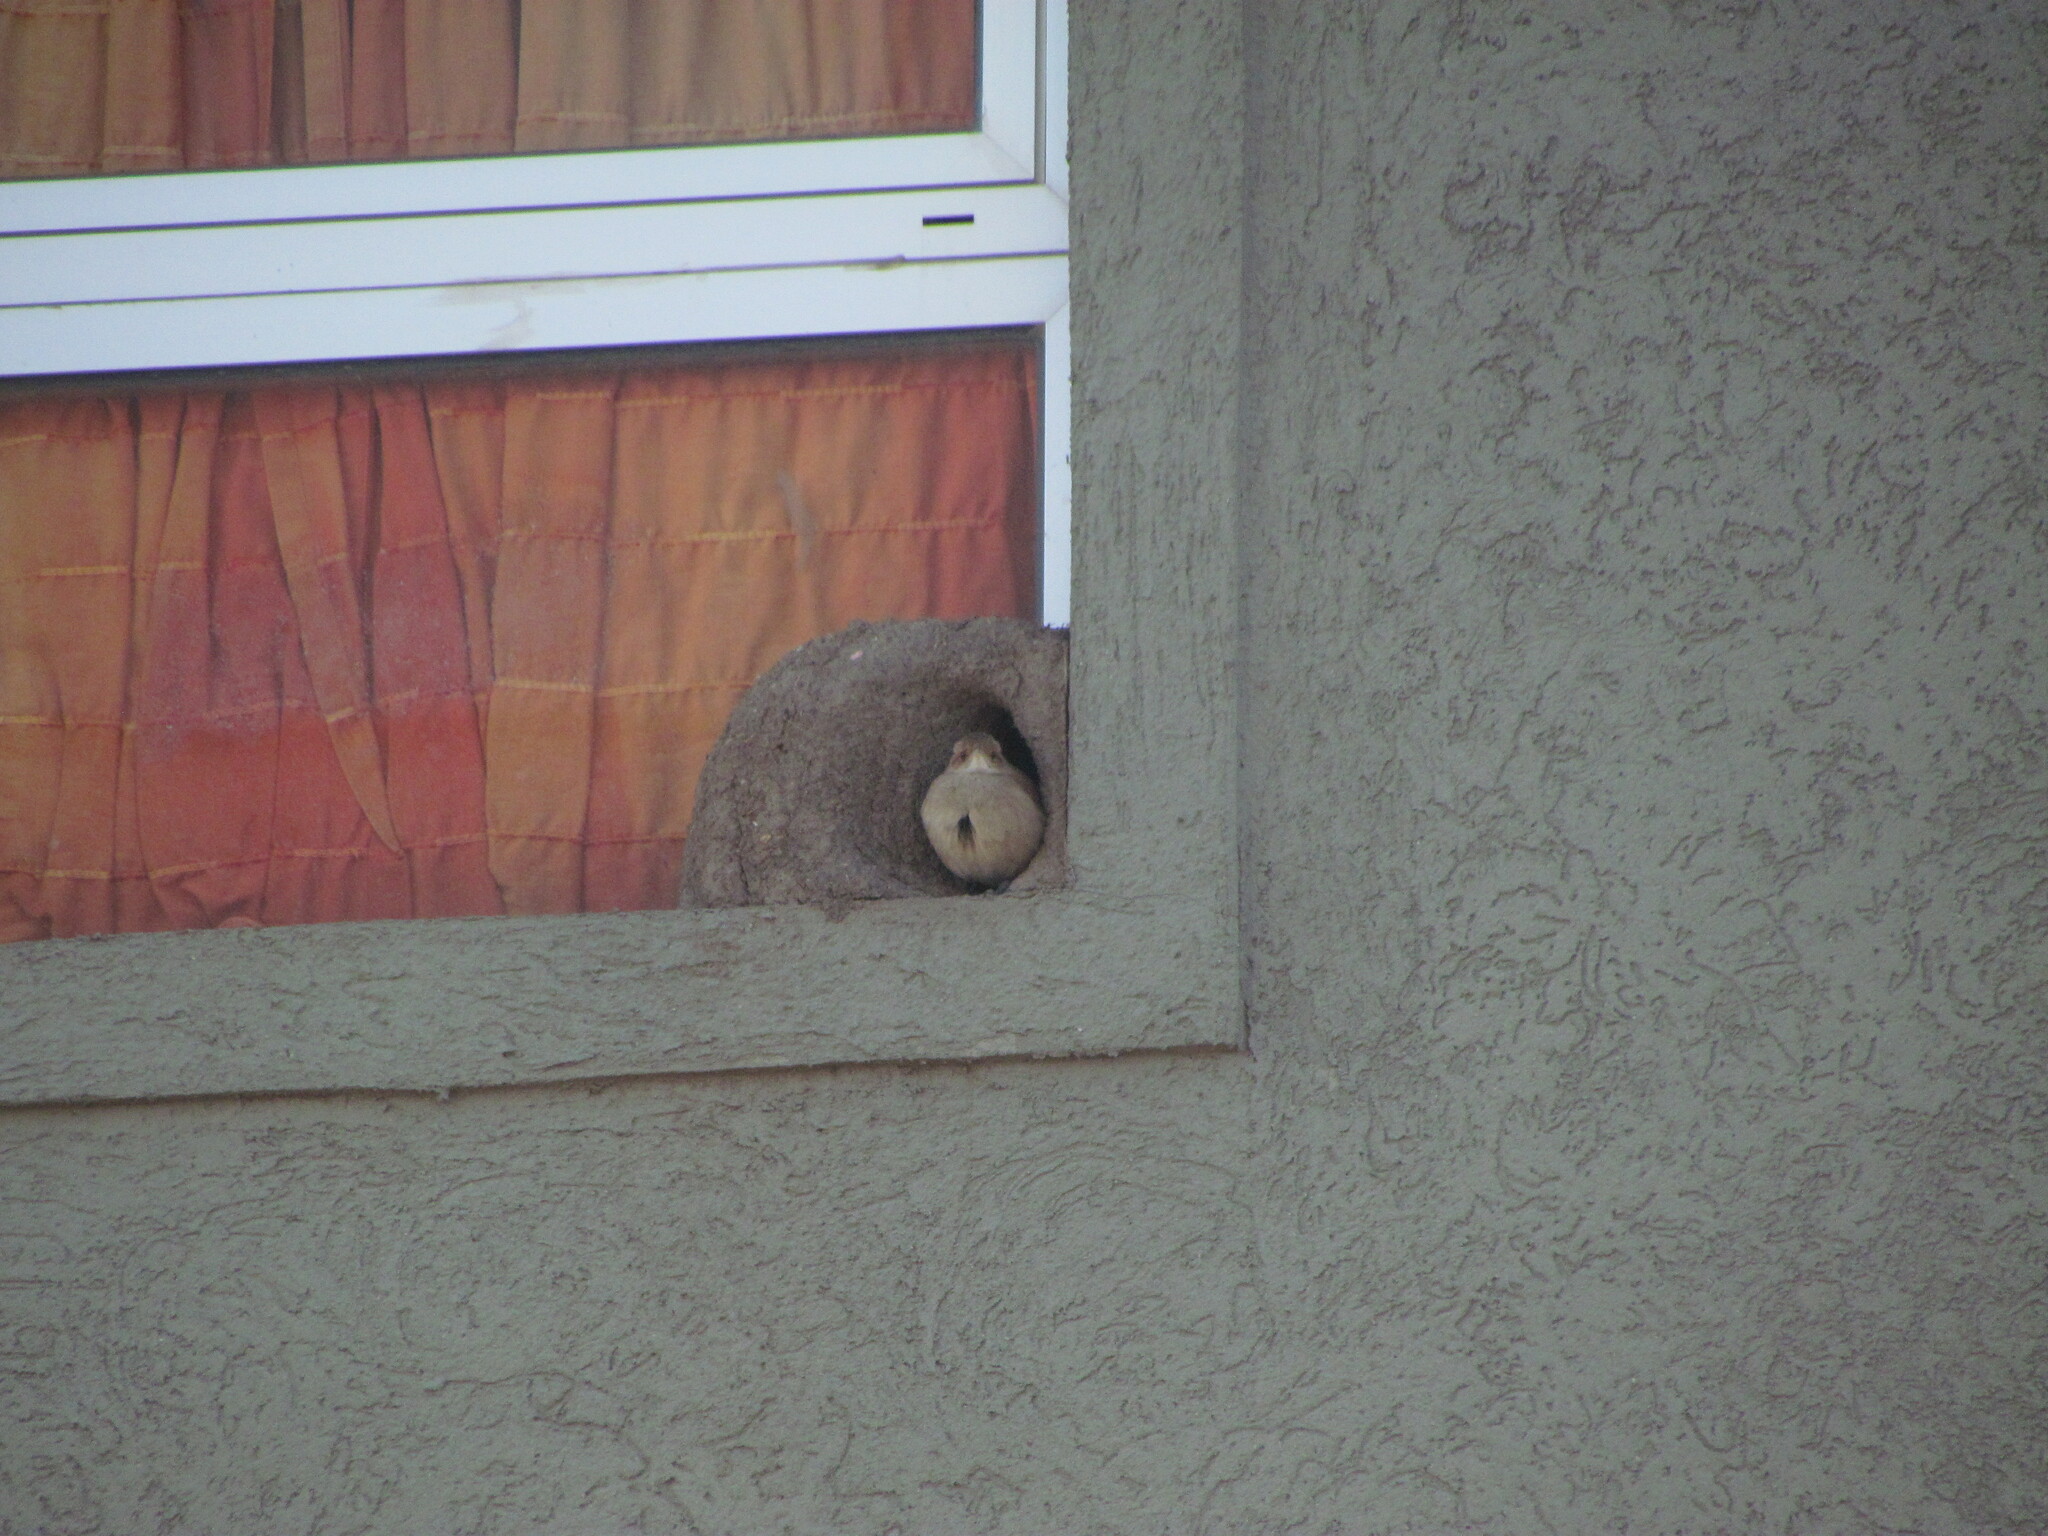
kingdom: Animalia
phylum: Chordata
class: Aves
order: Passeriformes
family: Furnariidae
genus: Furnarius
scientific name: Furnarius rufus
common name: Rufous hornero
